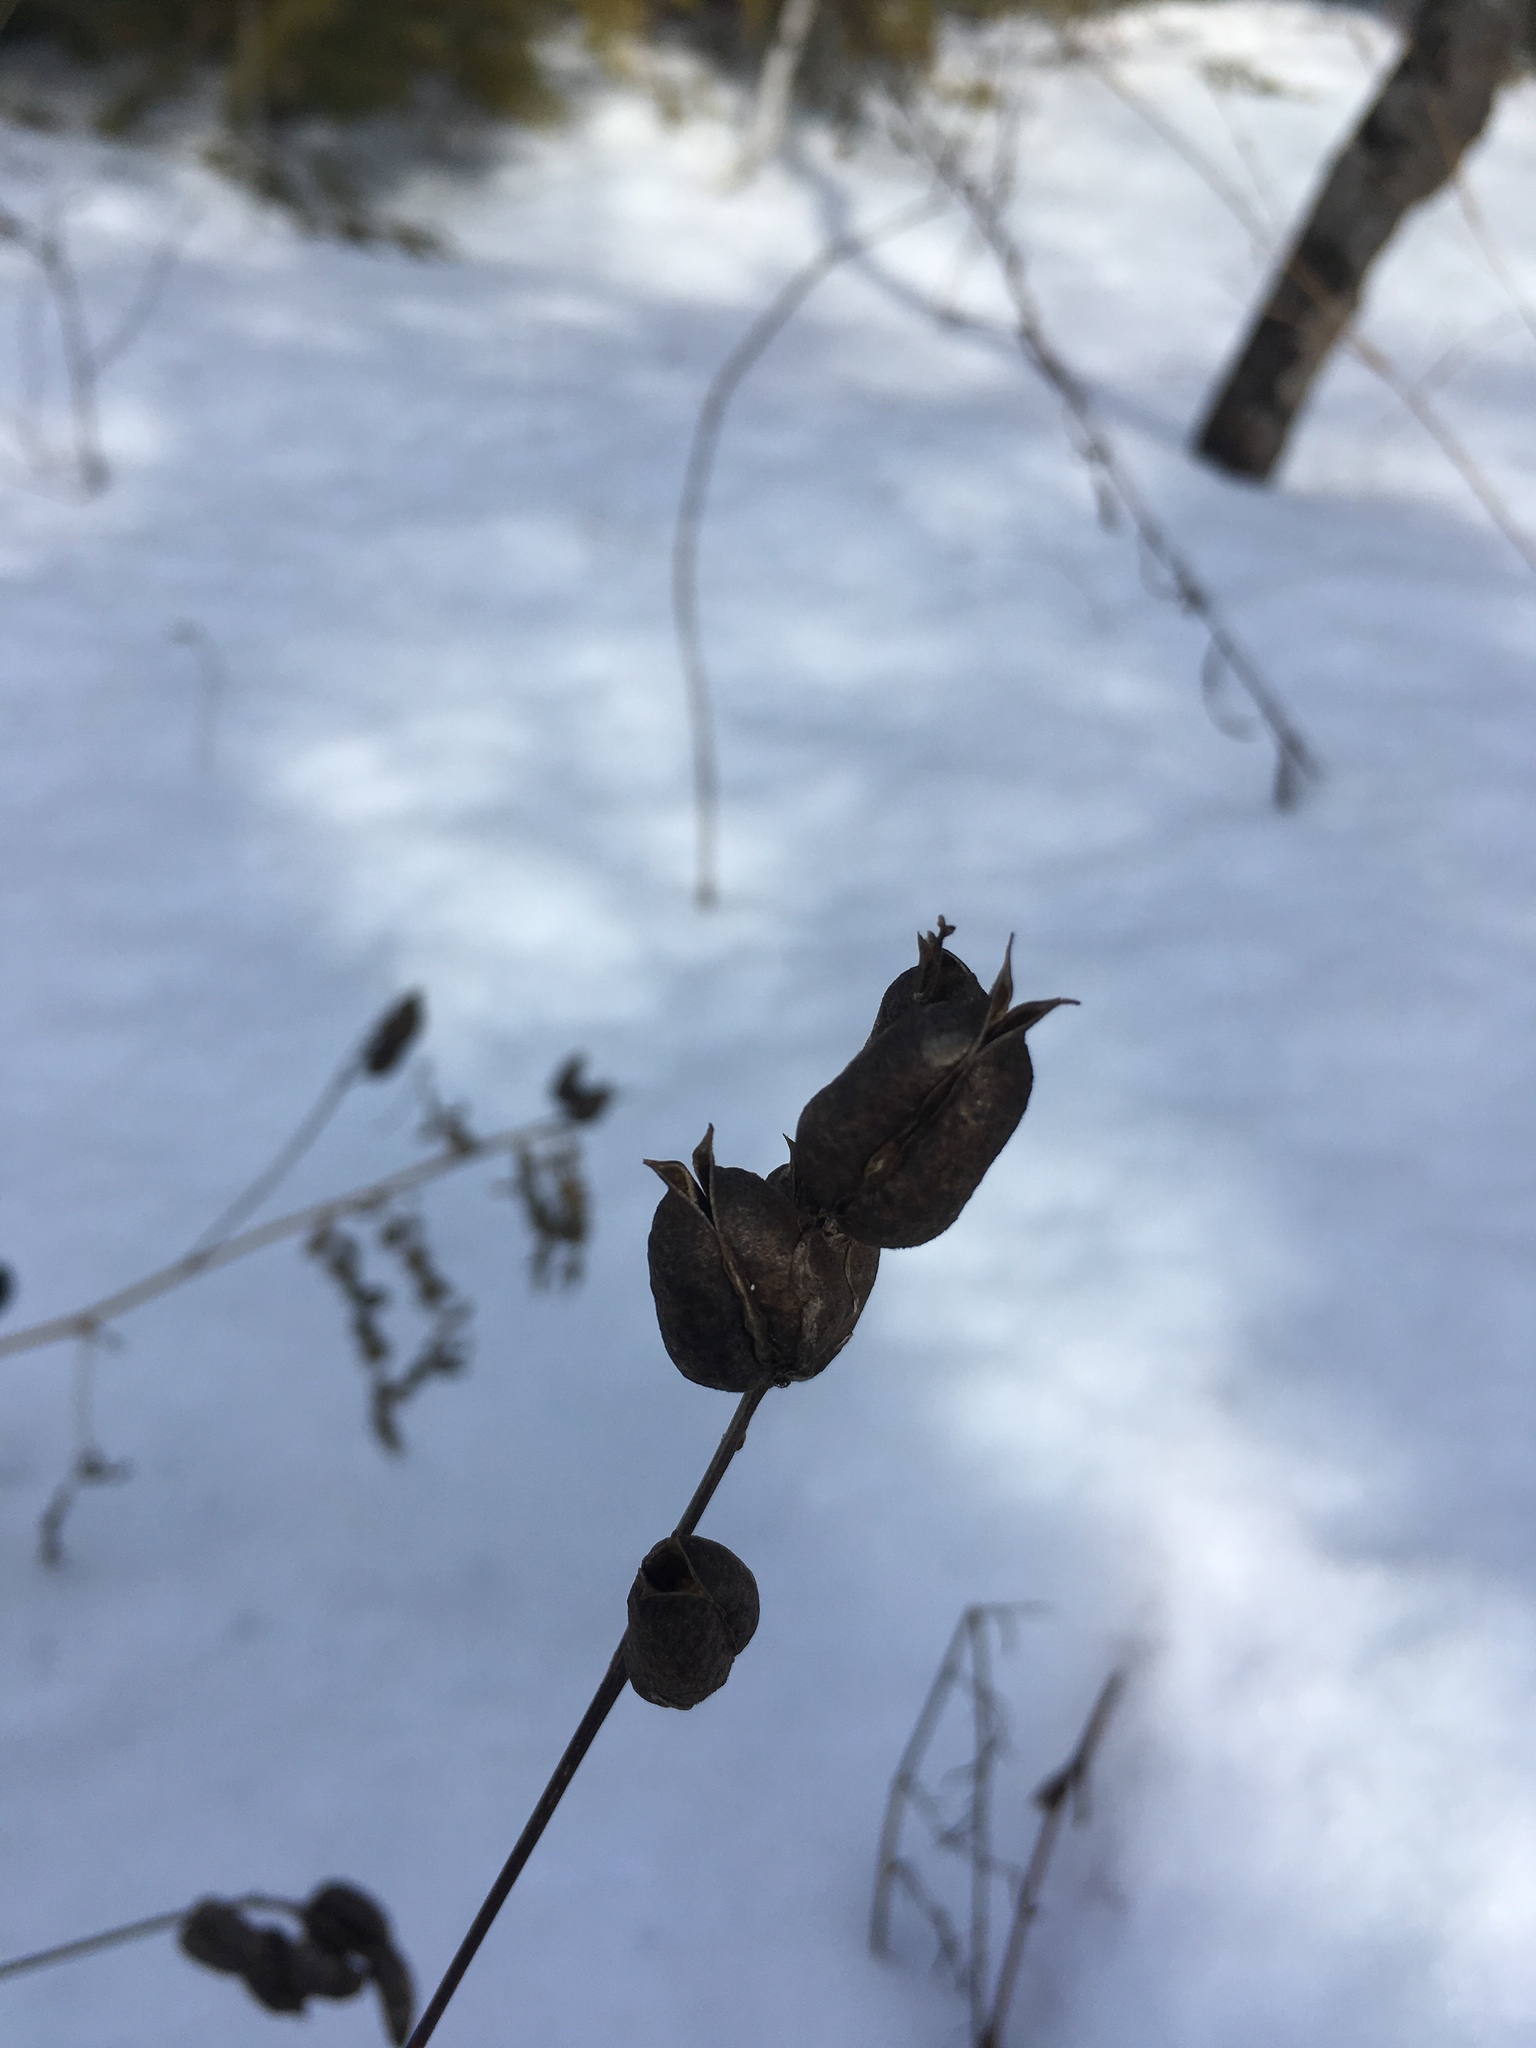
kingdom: Plantae
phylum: Tracheophyta
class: Magnoliopsida
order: Fabales
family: Fabaceae
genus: Astragalus
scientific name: Astragalus neglectus
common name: Cooper's milk-vetch
